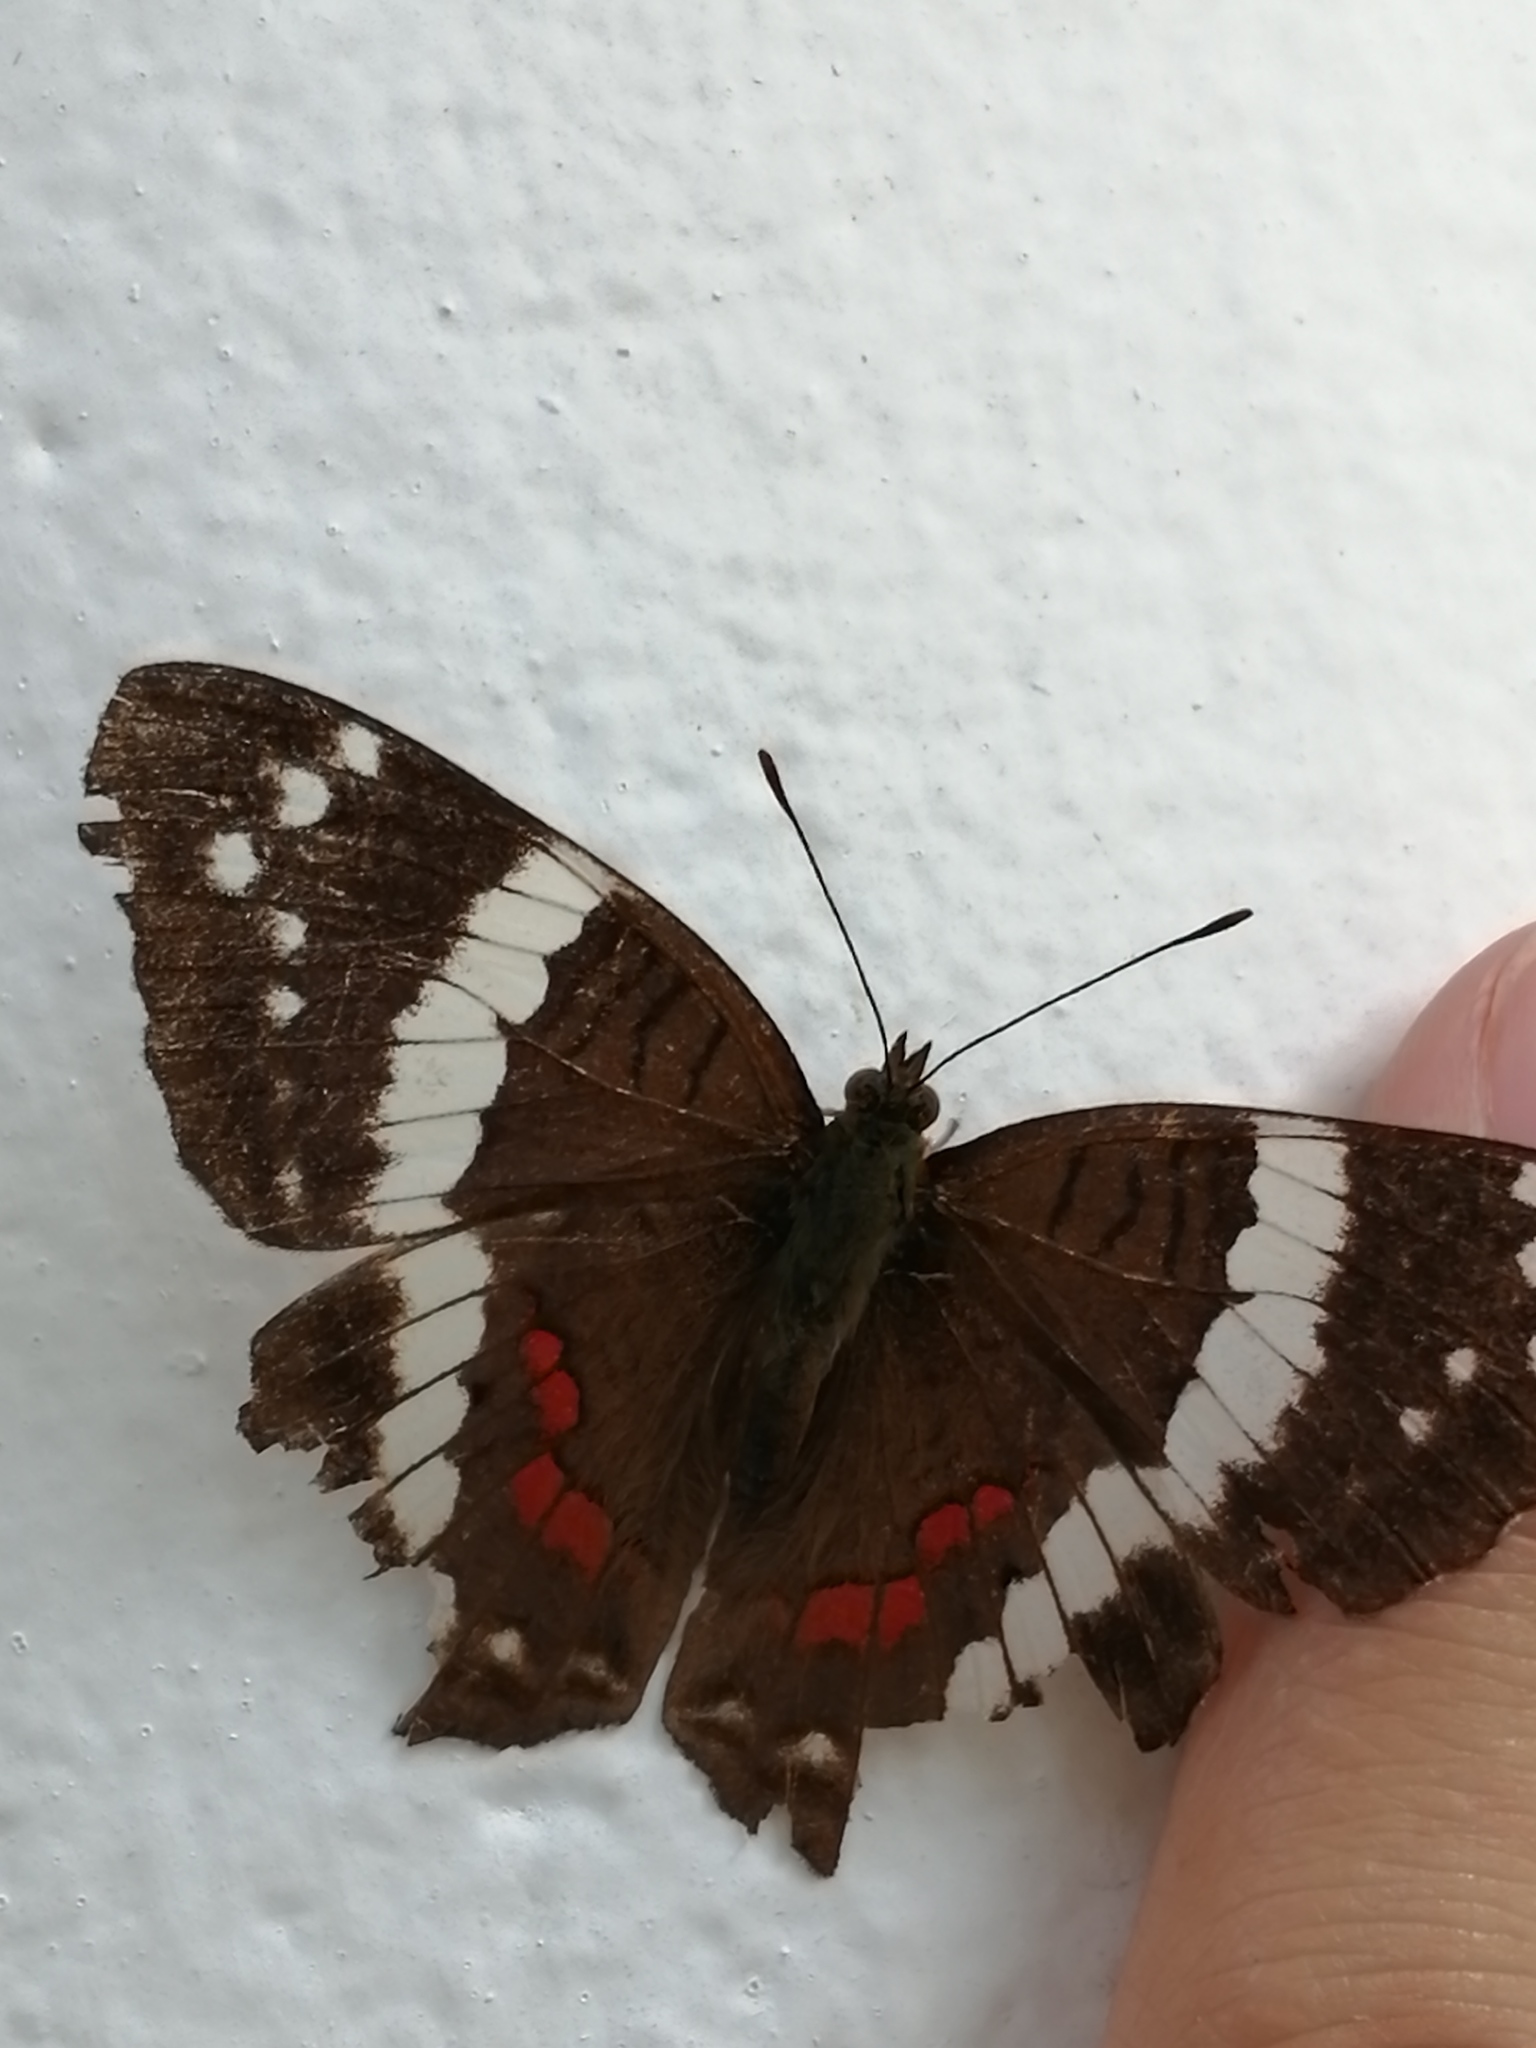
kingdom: Animalia
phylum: Arthropoda
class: Insecta
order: Lepidoptera
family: Nymphalidae
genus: Anartia
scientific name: Anartia fatima
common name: Banded peacock
